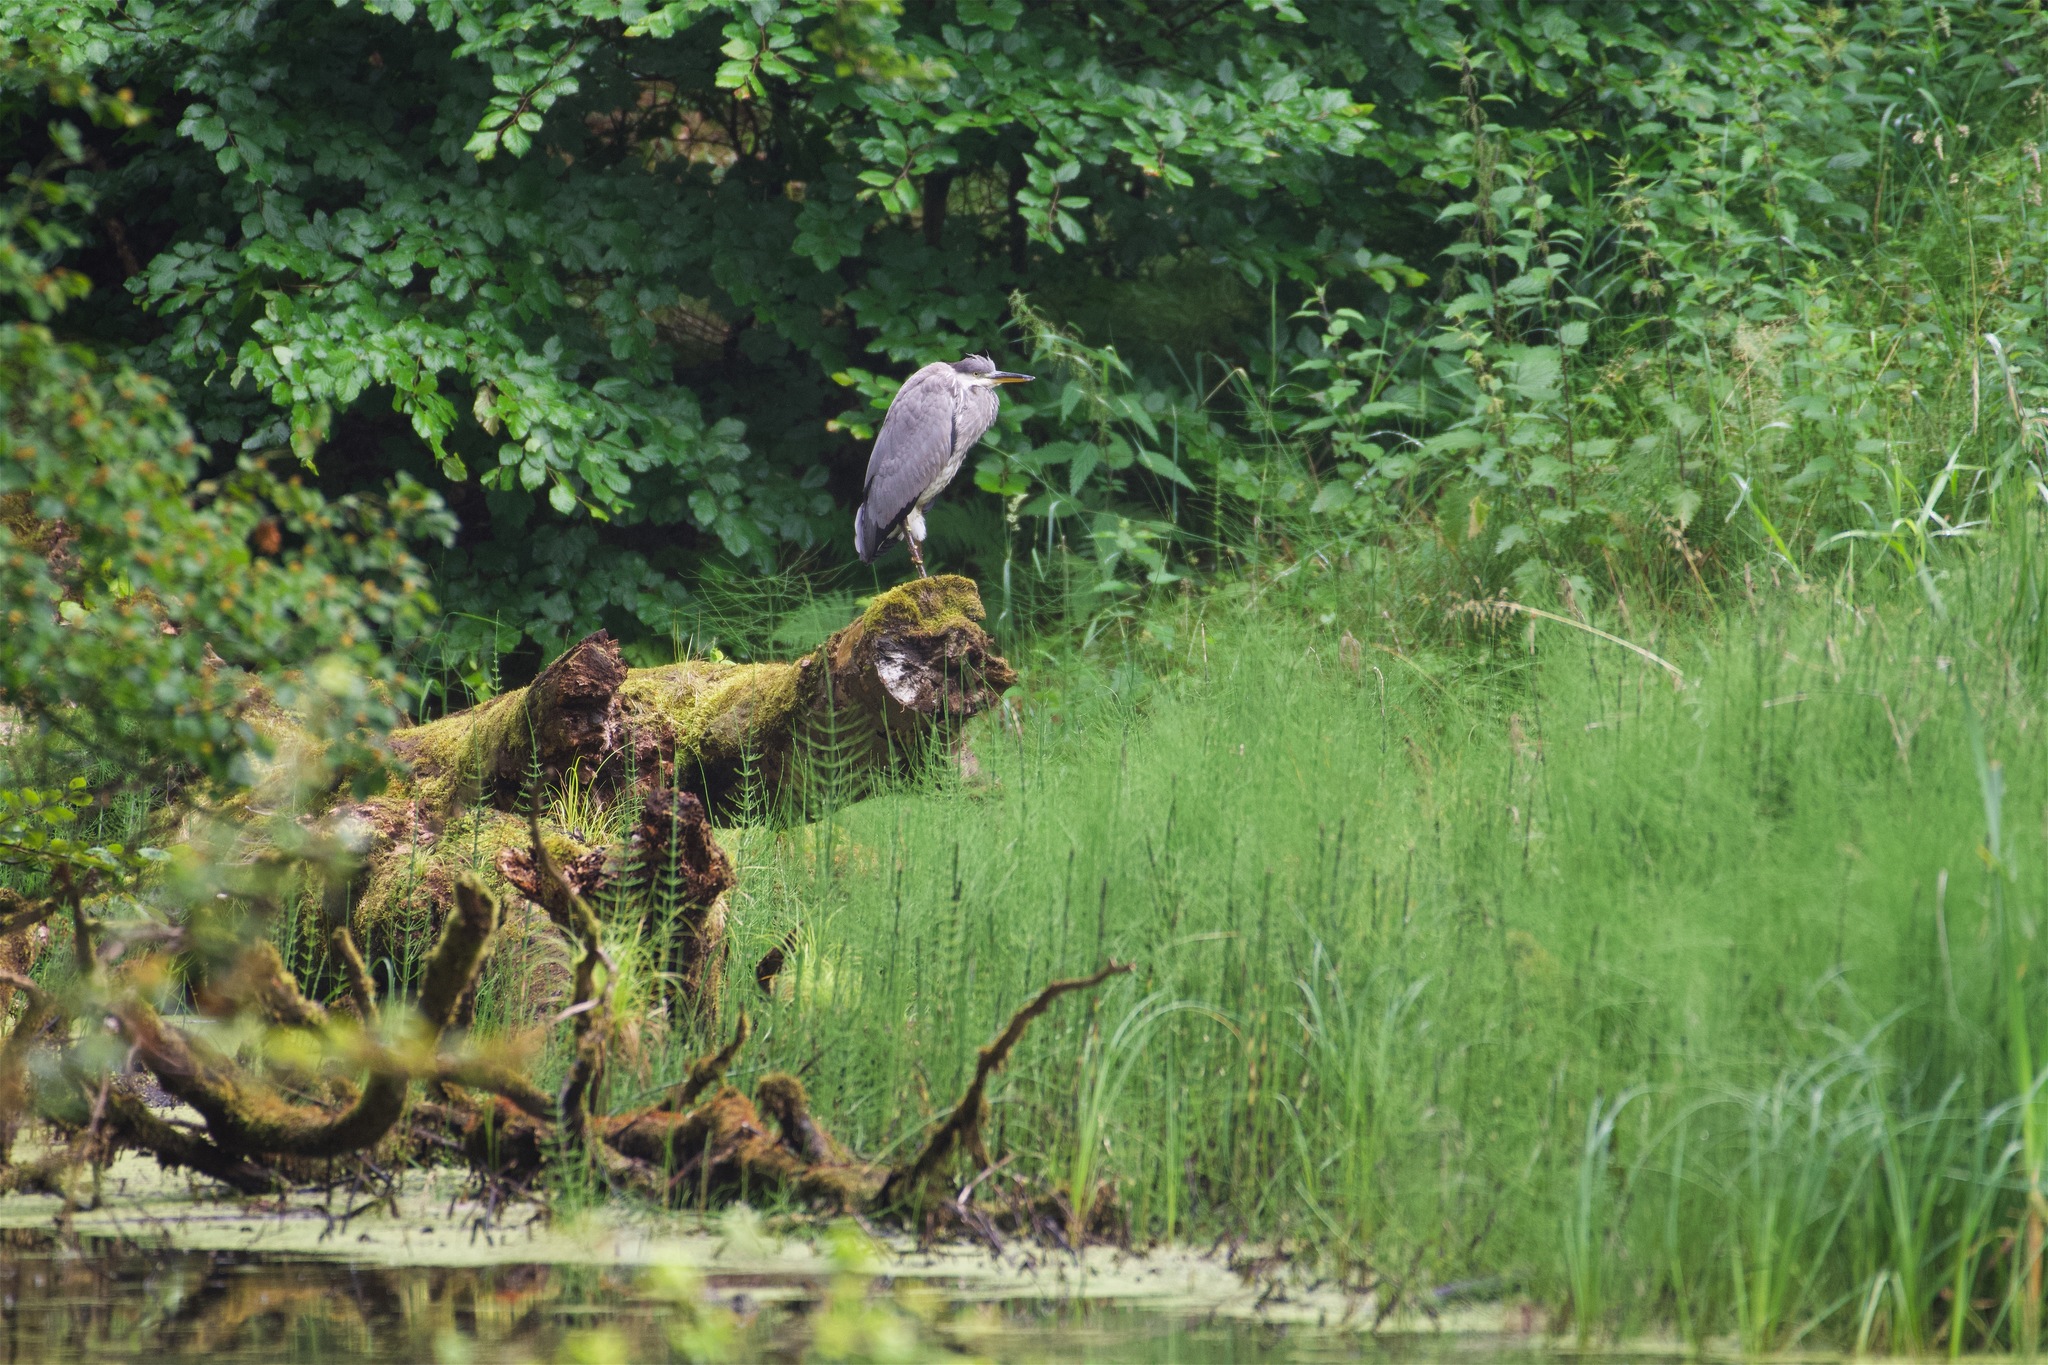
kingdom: Animalia
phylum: Chordata
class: Aves
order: Pelecaniformes
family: Ardeidae
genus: Ardea
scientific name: Ardea cinerea
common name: Grey heron
